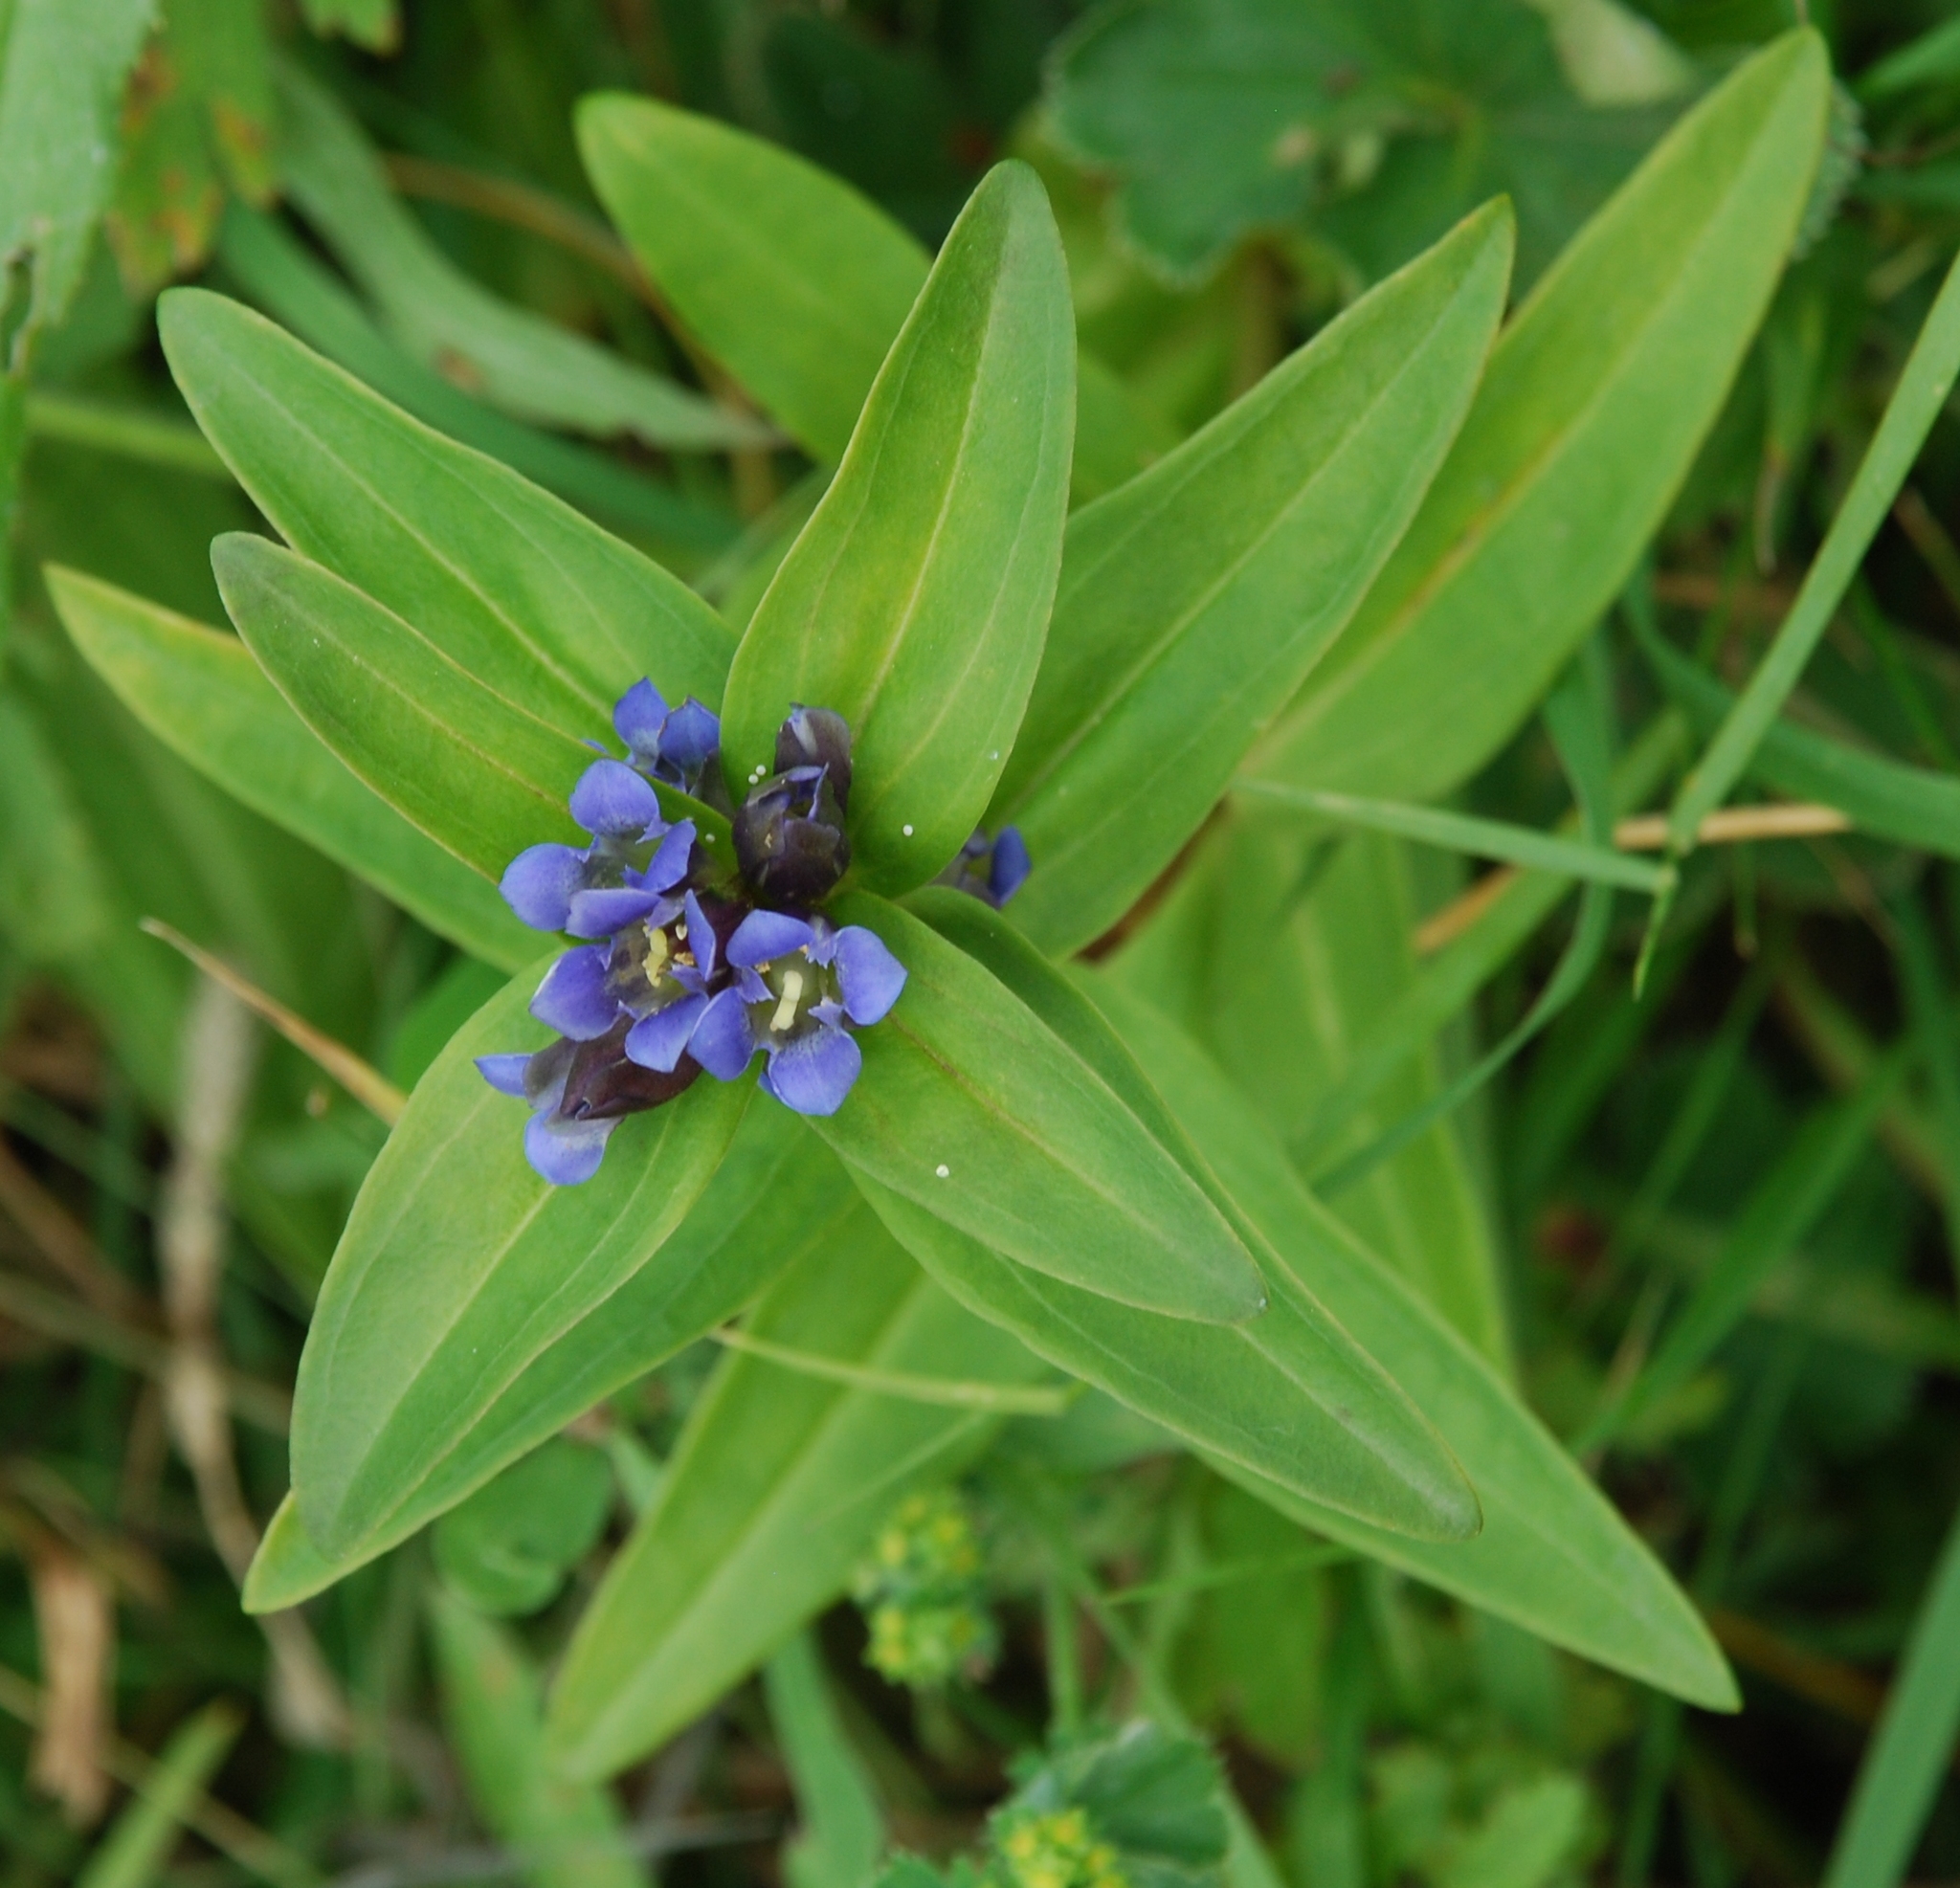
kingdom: Plantae
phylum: Tracheophyta
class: Magnoliopsida
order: Gentianales
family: Gentianaceae
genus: Gentiana
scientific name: Gentiana cruciata
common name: Cross gentian
